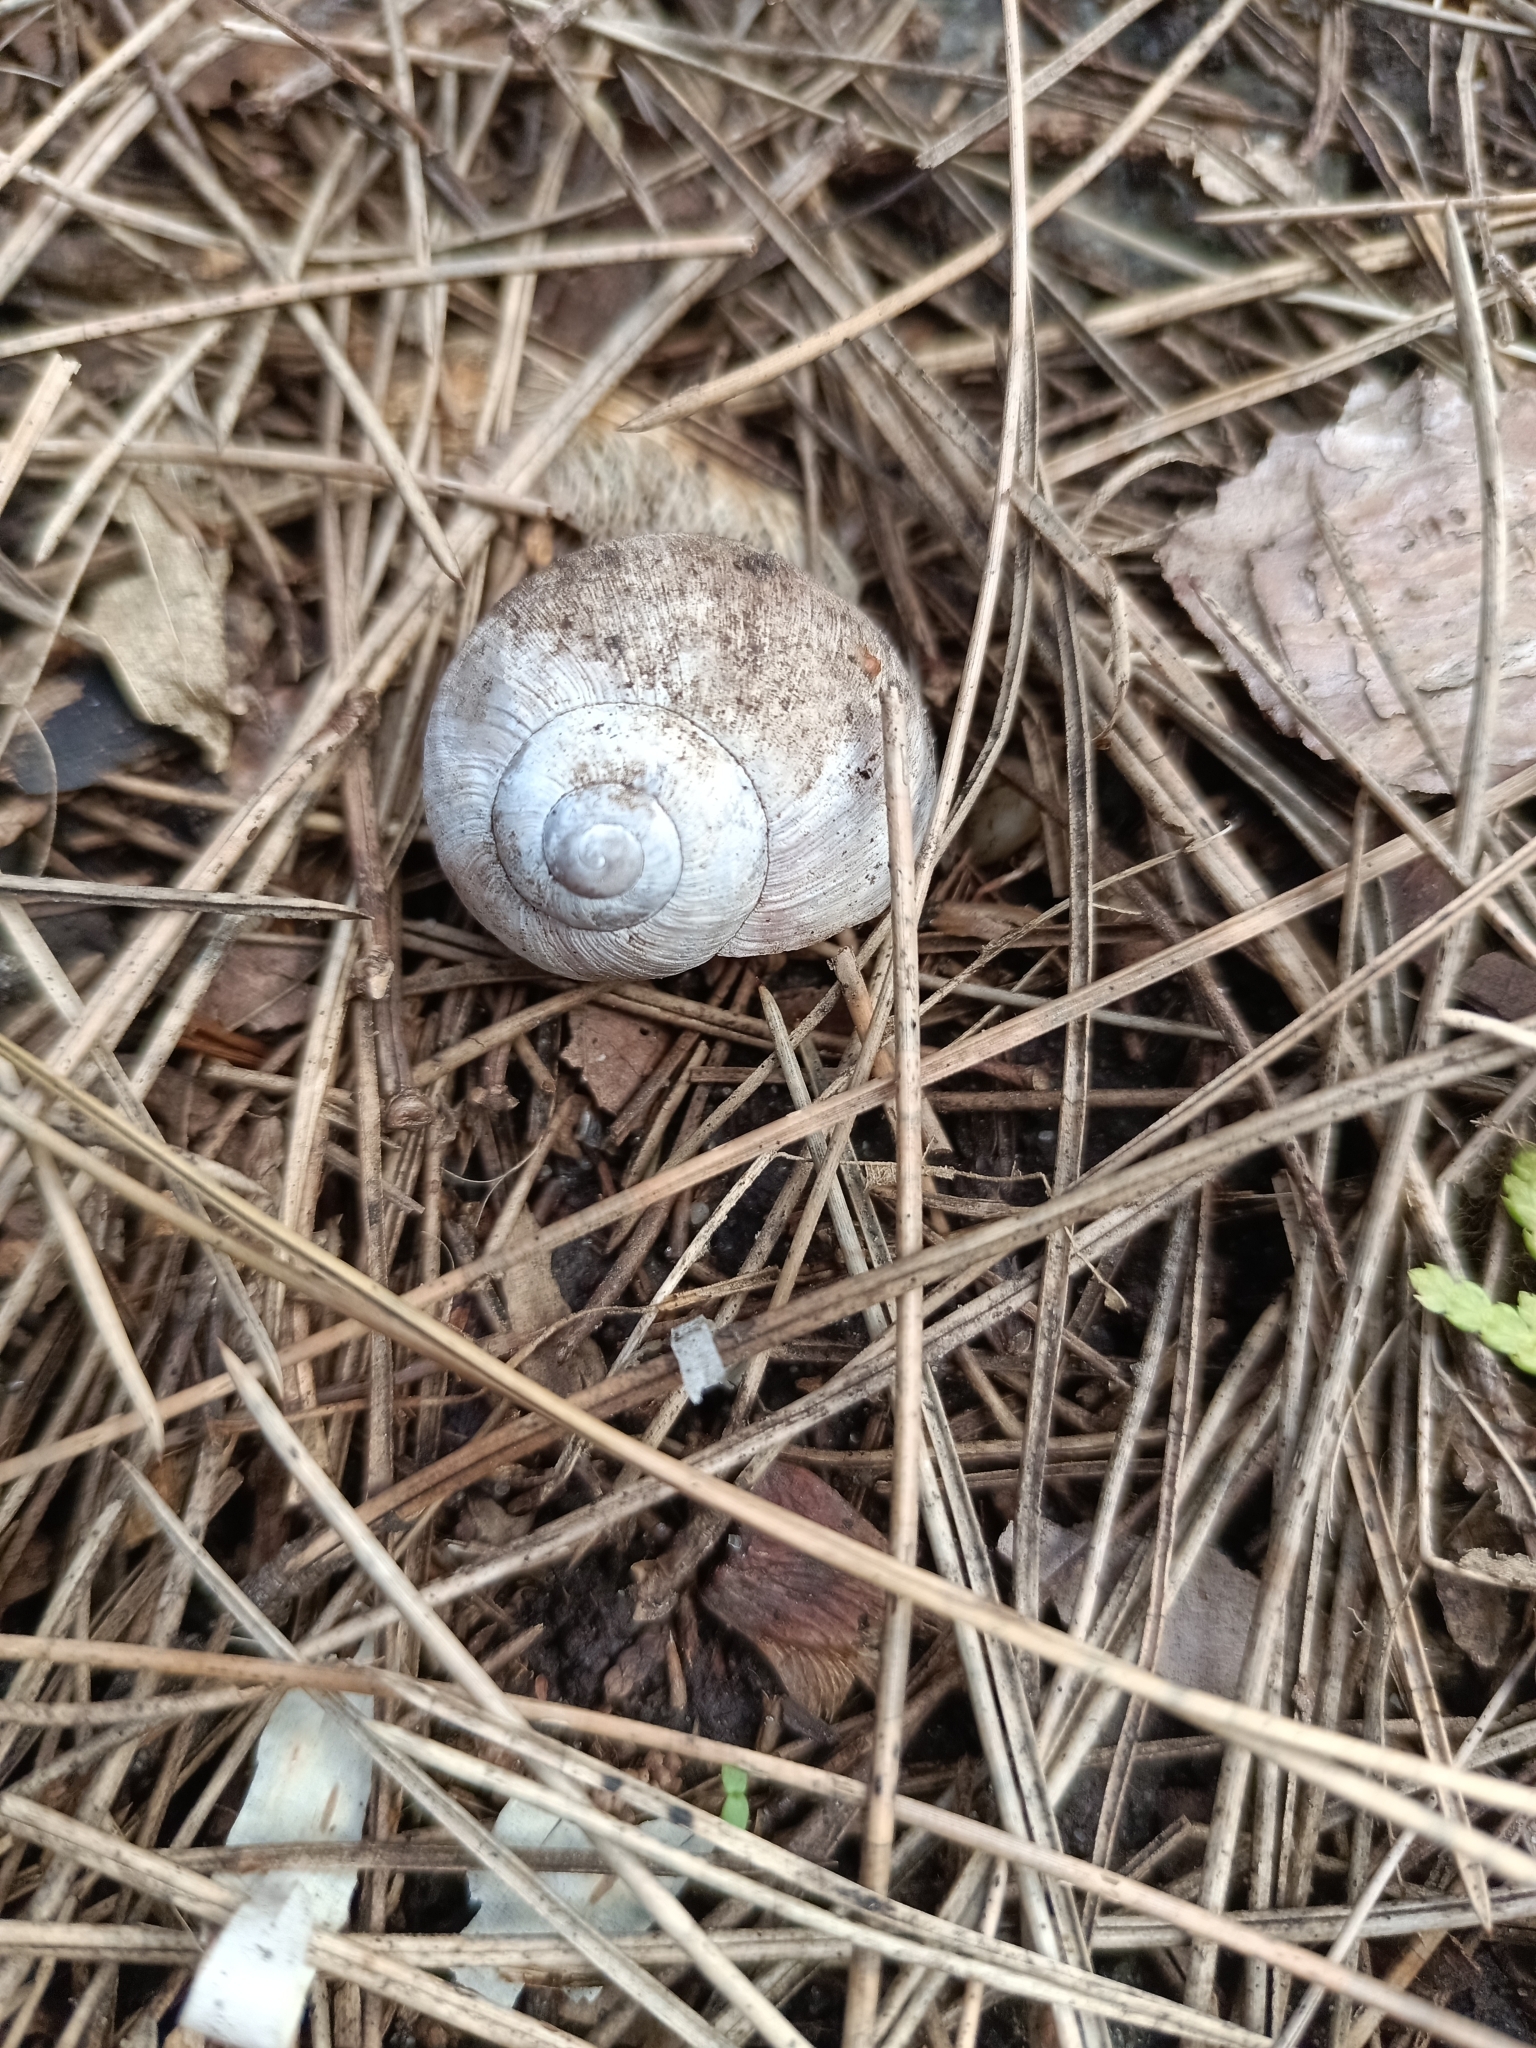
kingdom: Animalia
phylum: Mollusca
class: Gastropoda
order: Stylommatophora
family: Helicidae
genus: Helix
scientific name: Helix pomatia
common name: Roman snail
